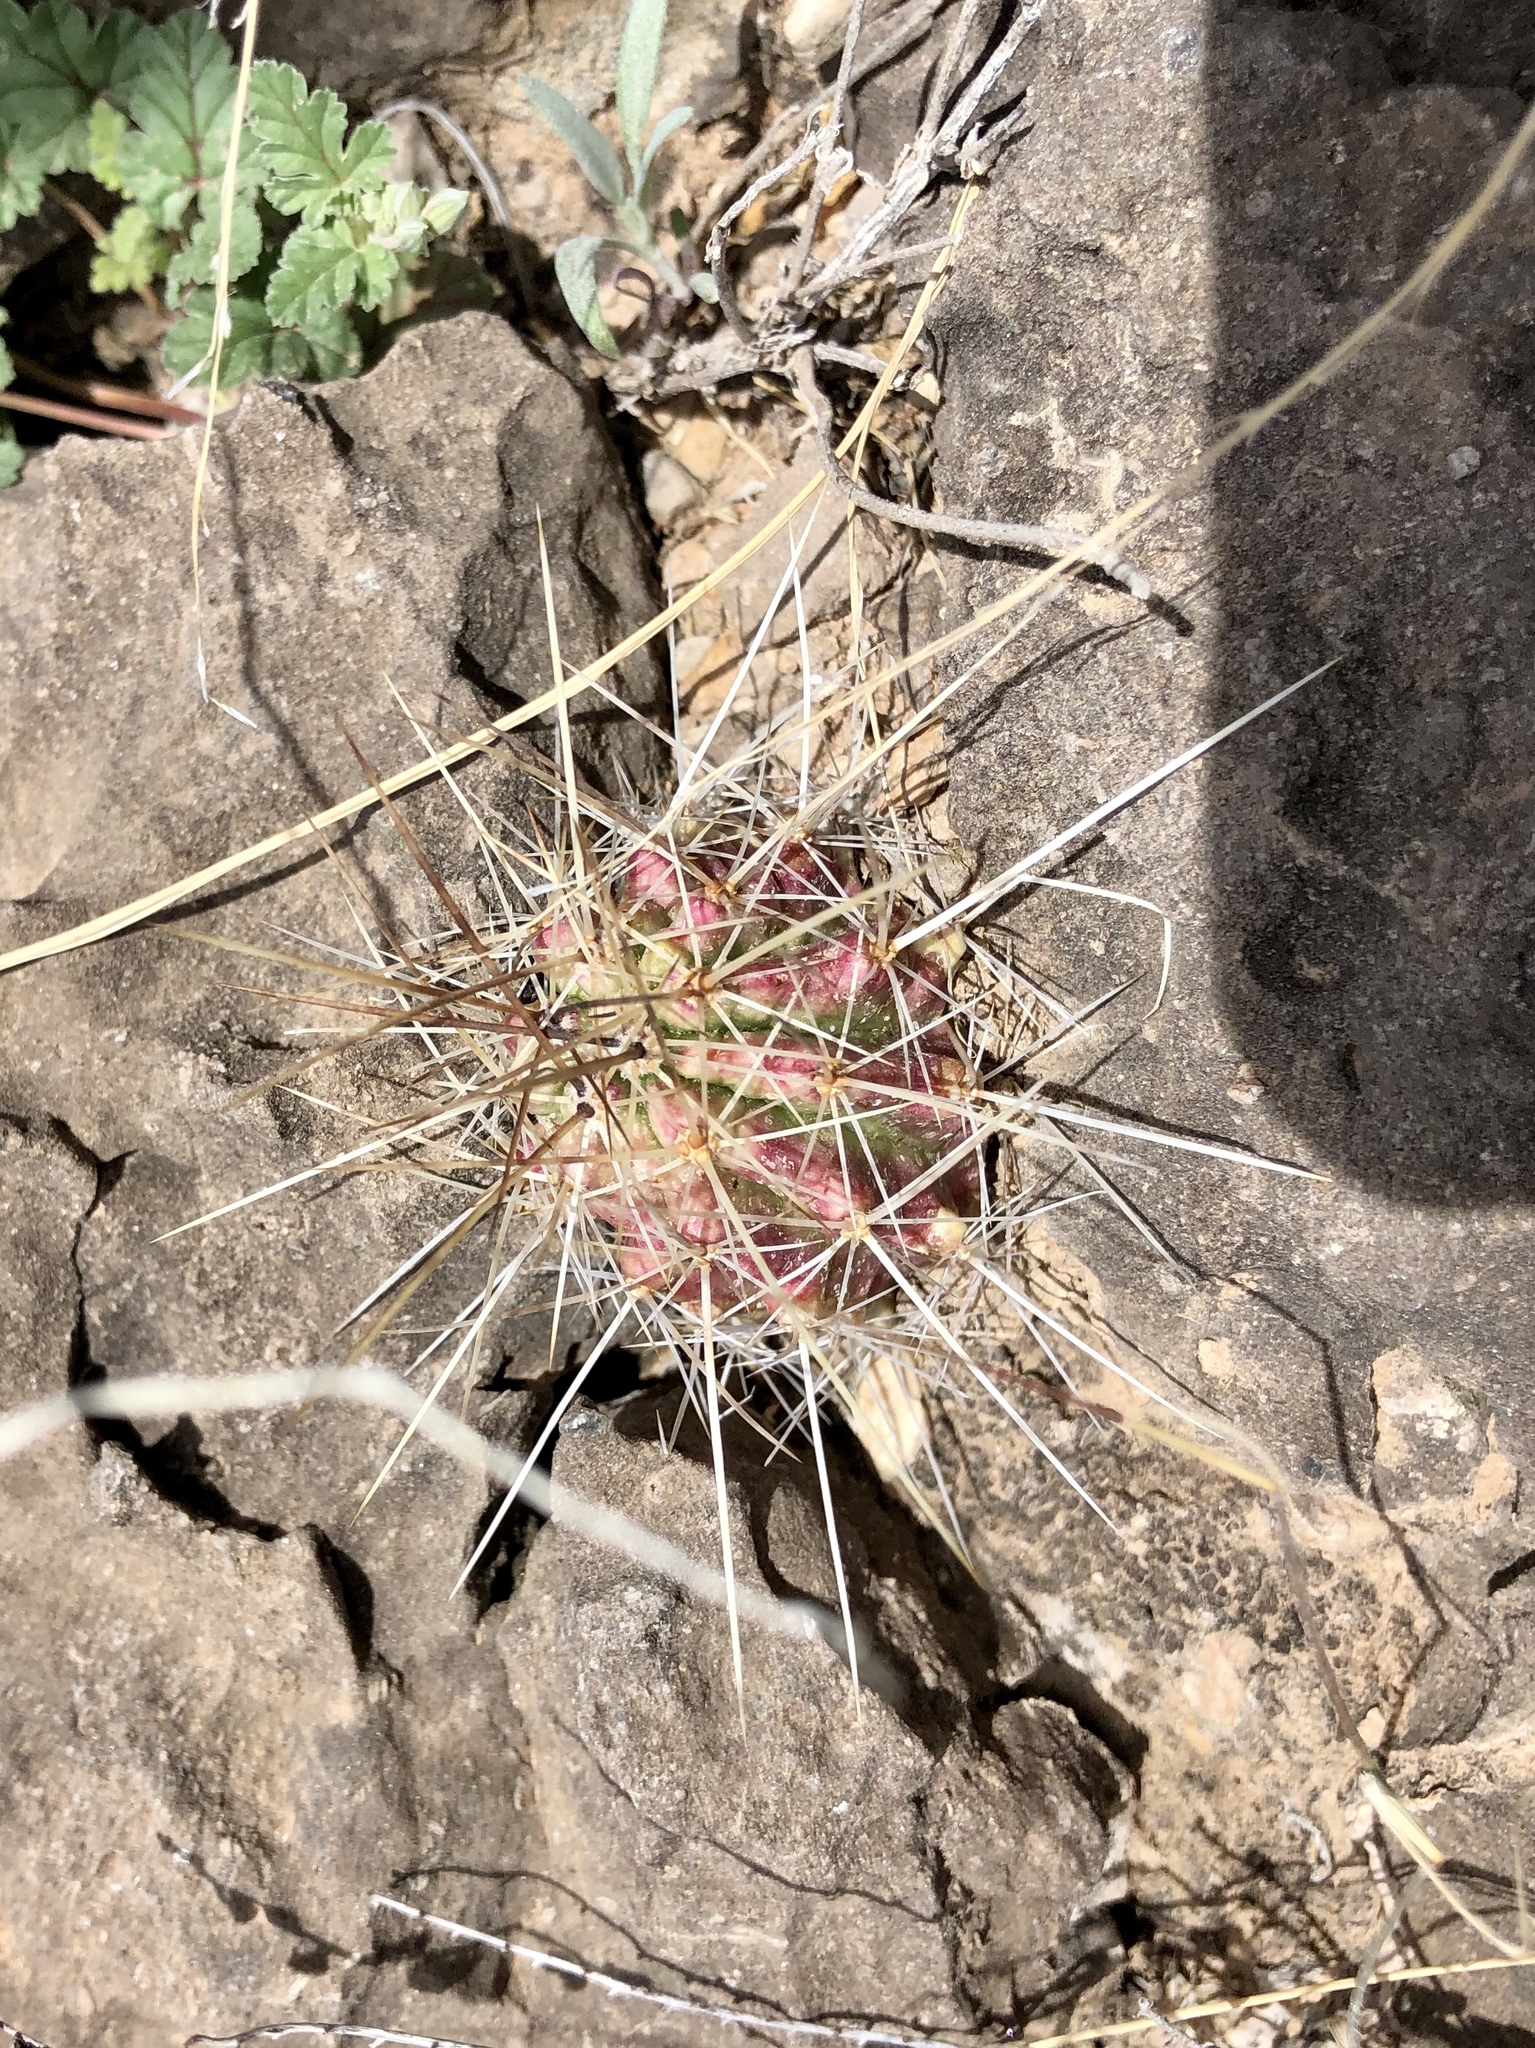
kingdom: Plantae
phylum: Tracheophyta
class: Magnoliopsida
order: Caryophyllales
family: Cactaceae
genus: Echinocereus
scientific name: Echinocereus stramineus
